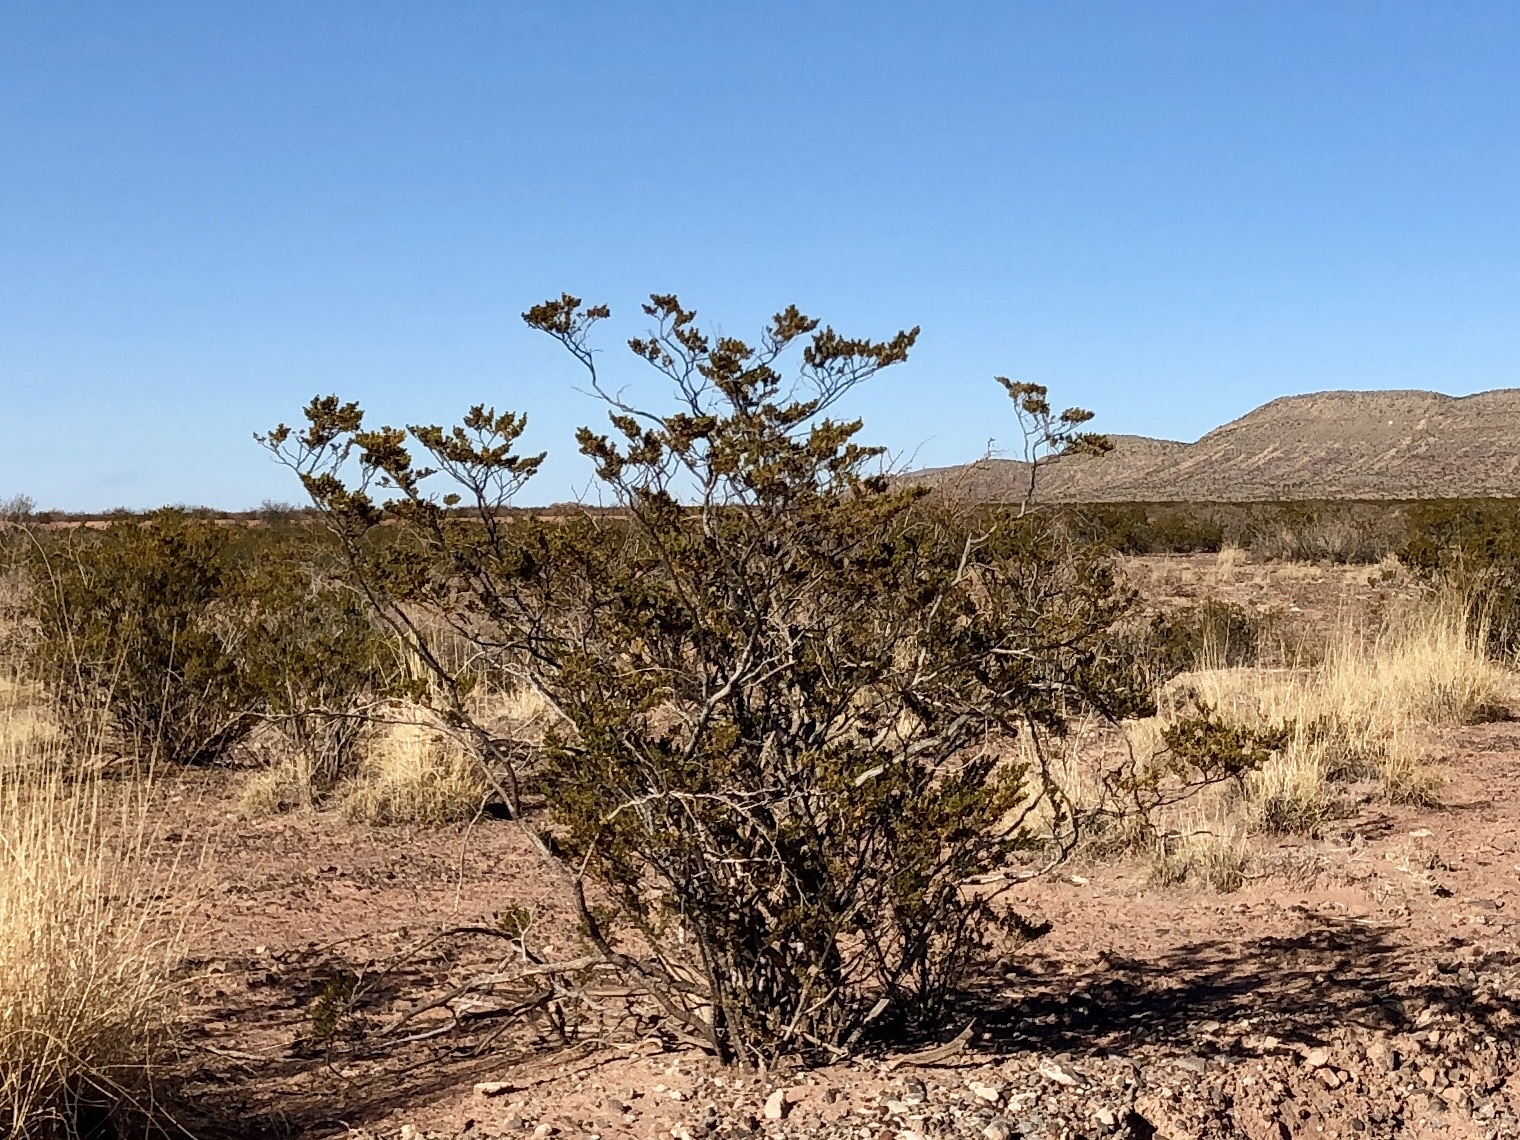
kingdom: Plantae
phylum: Tracheophyta
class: Magnoliopsida
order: Zygophyllales
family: Zygophyllaceae
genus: Larrea
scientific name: Larrea tridentata
